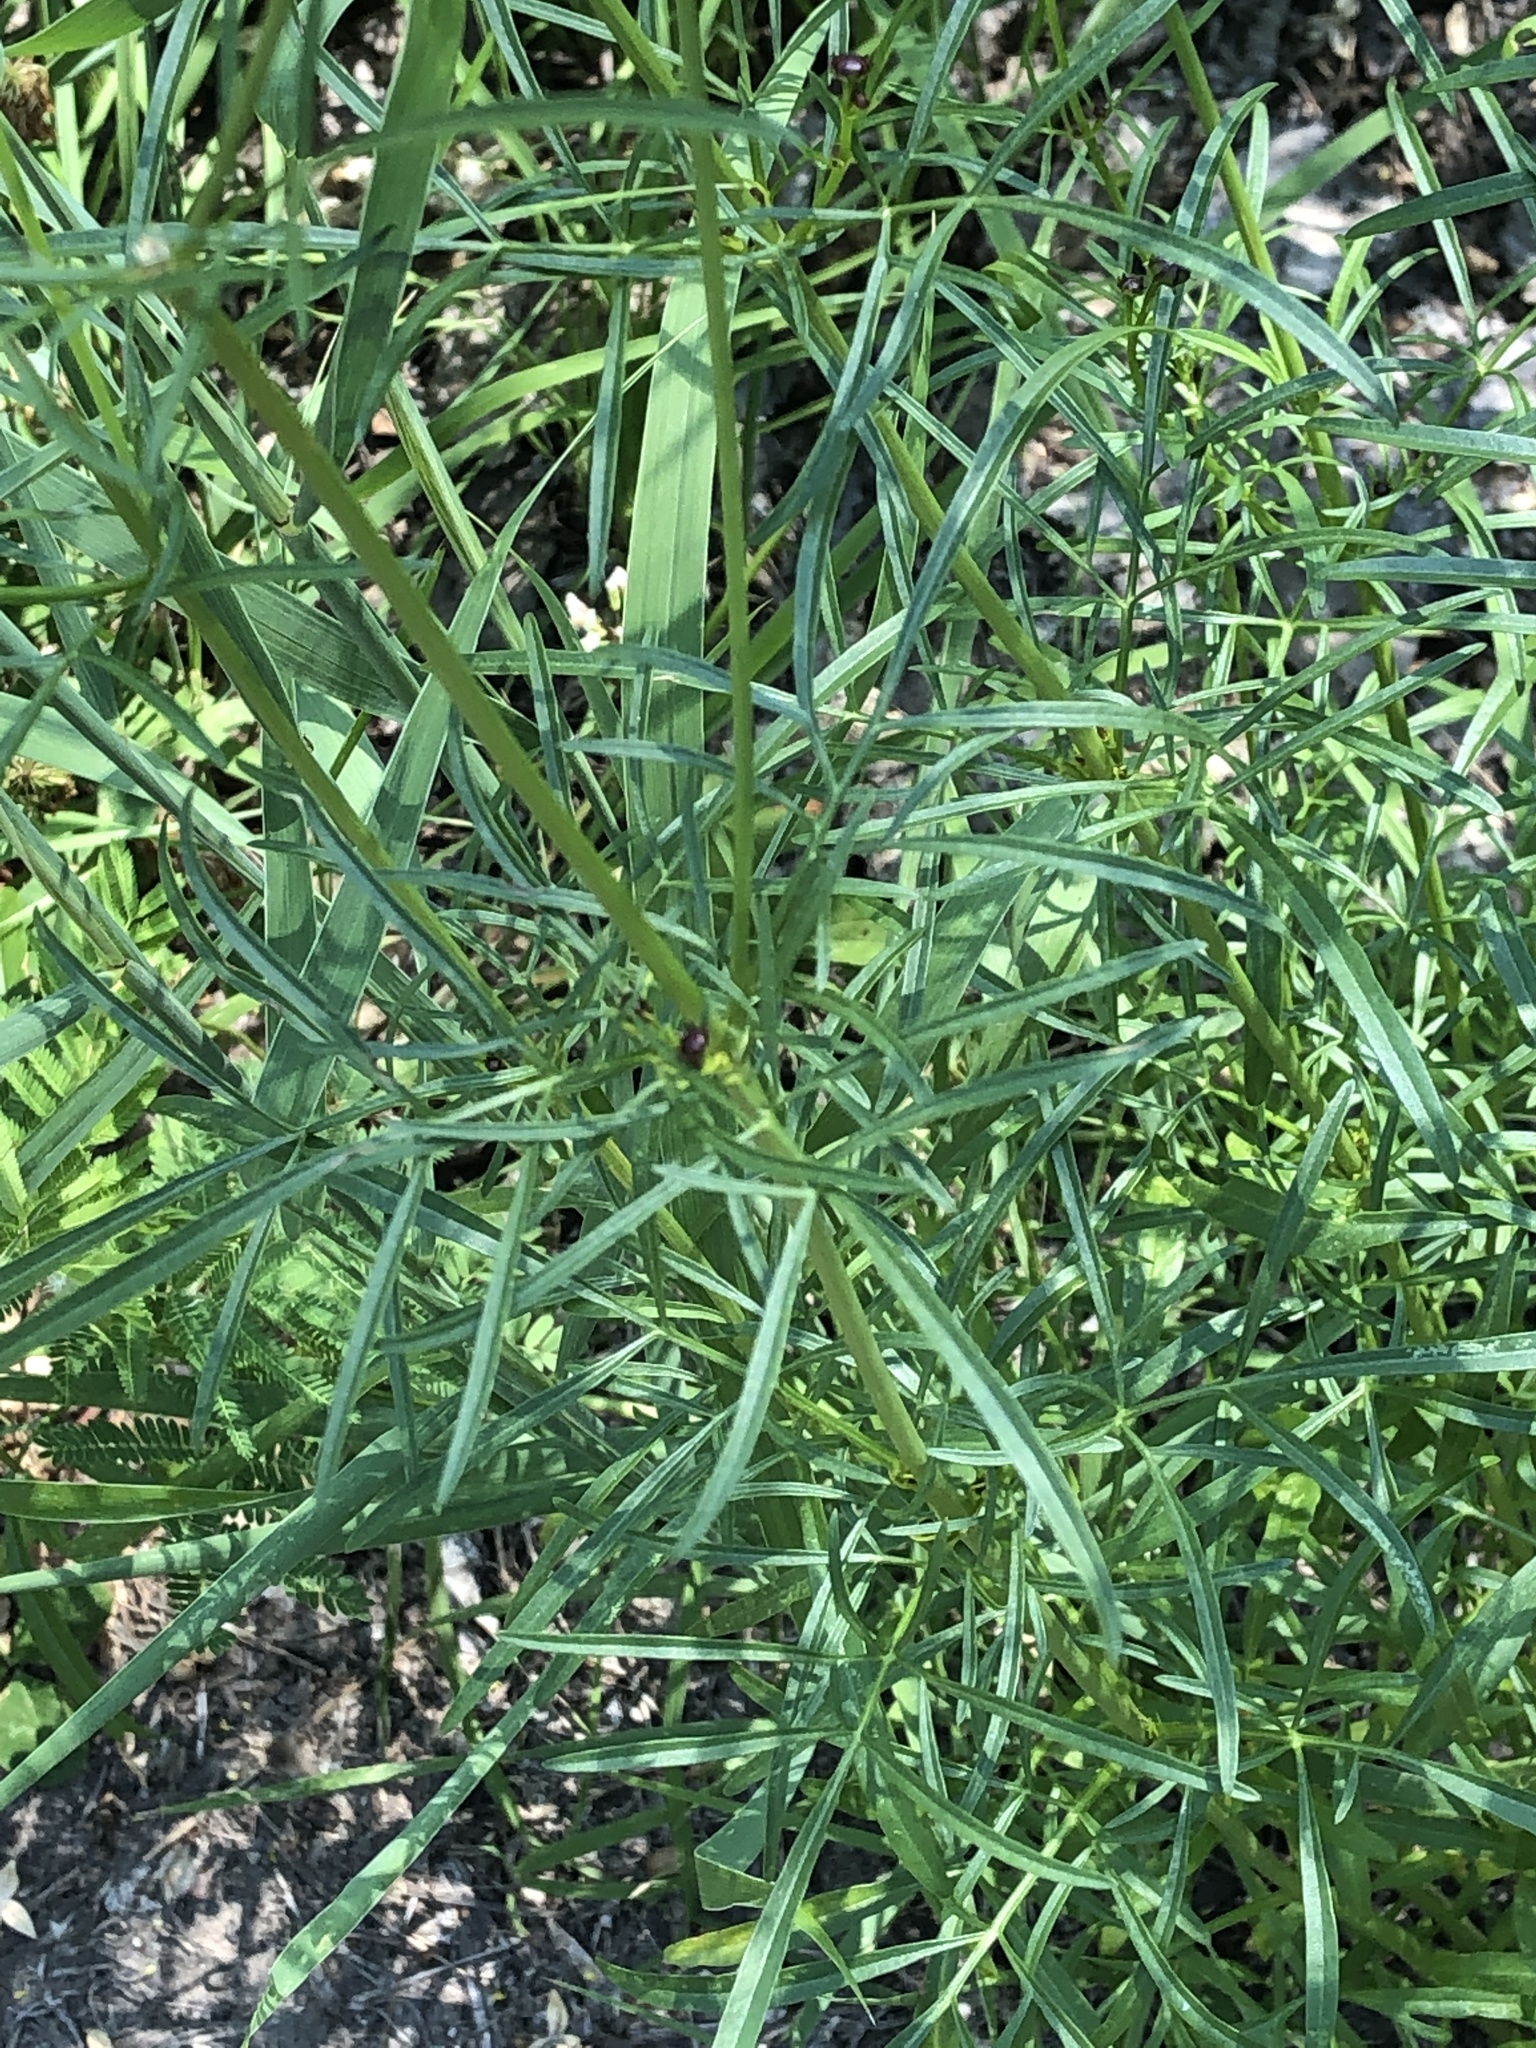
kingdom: Plantae
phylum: Tracheophyta
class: Magnoliopsida
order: Asterales
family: Asteraceae
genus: Coreopsis
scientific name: Coreopsis tinctoria
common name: Garden tickseed
